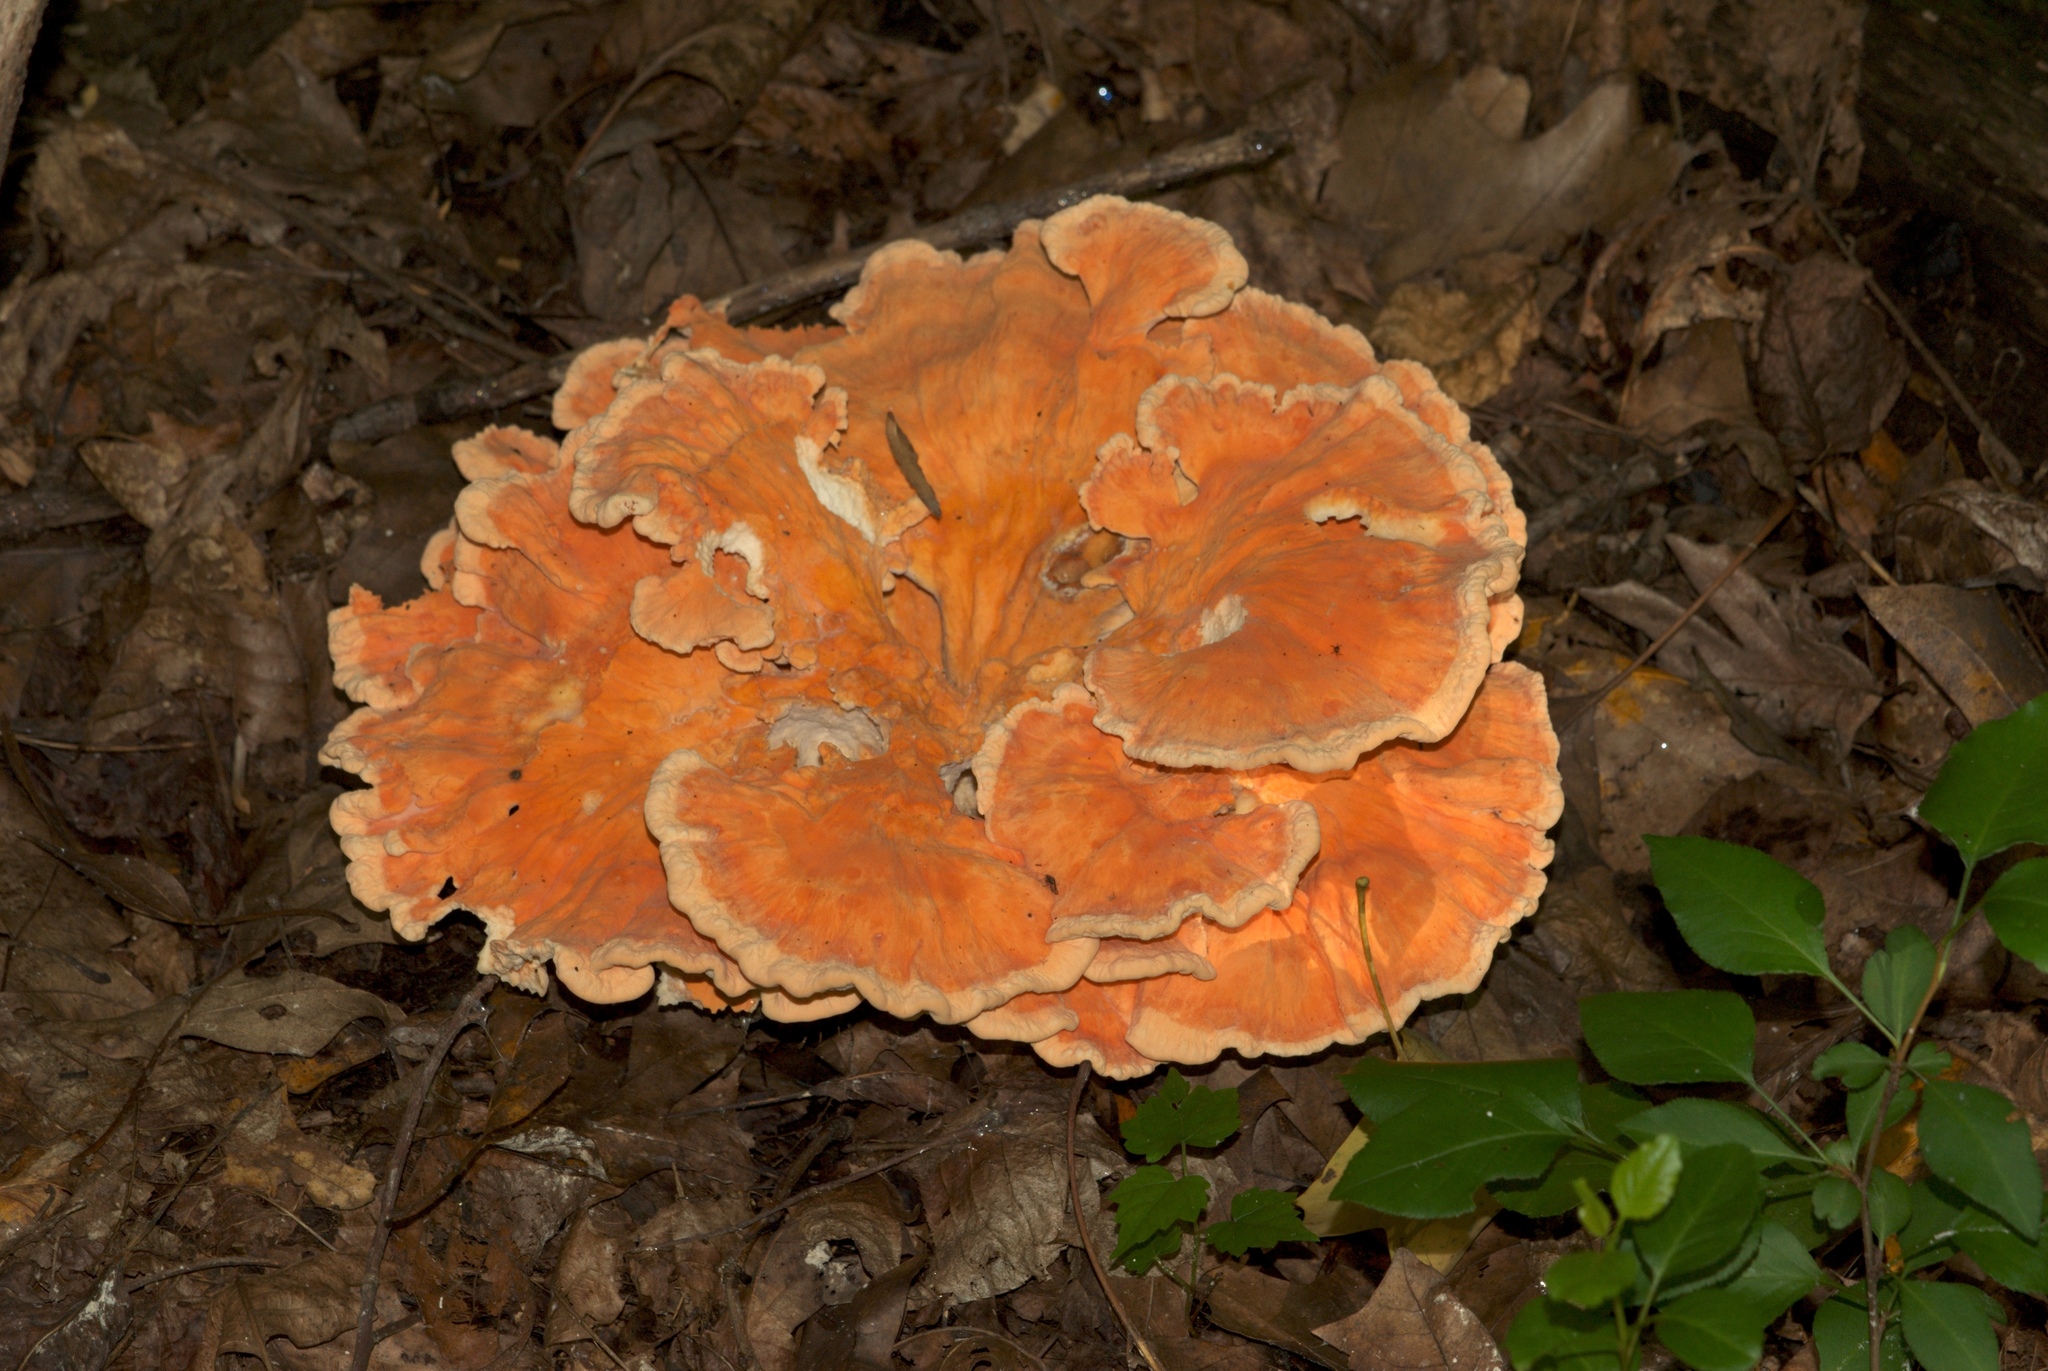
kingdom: Fungi
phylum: Basidiomycota
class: Agaricomycetes
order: Polyporales
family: Laetiporaceae
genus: Laetiporus
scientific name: Laetiporus sulphureus
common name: Chicken of the woods
